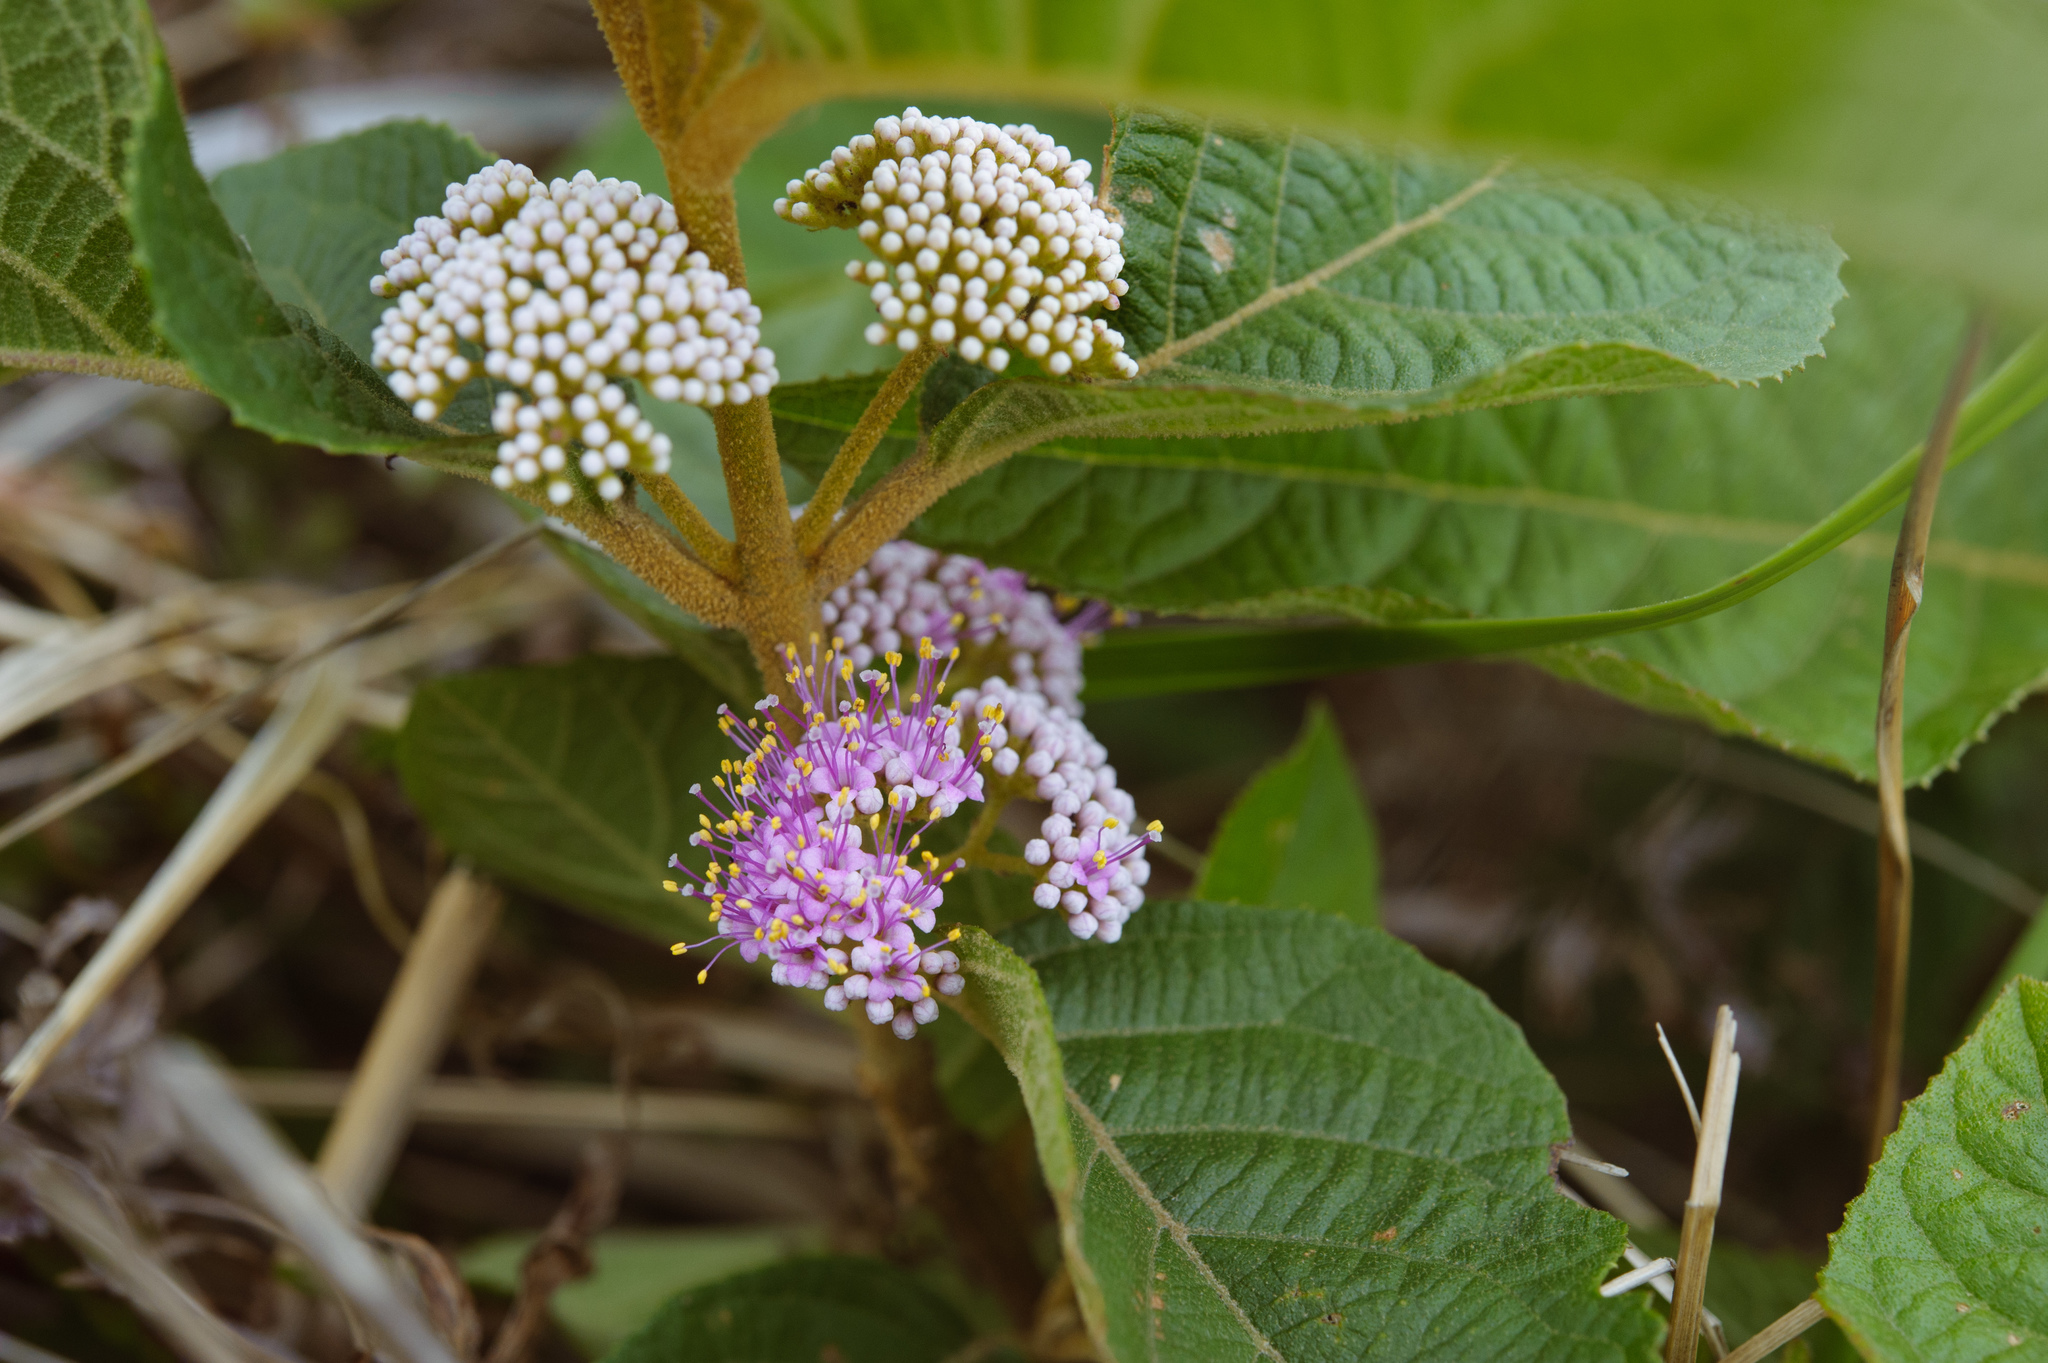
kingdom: Plantae
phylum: Tracheophyta
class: Magnoliopsida
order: Lamiales
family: Lamiaceae
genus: Callicarpa
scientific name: Callicarpa pedunculata
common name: Velvetleaf
